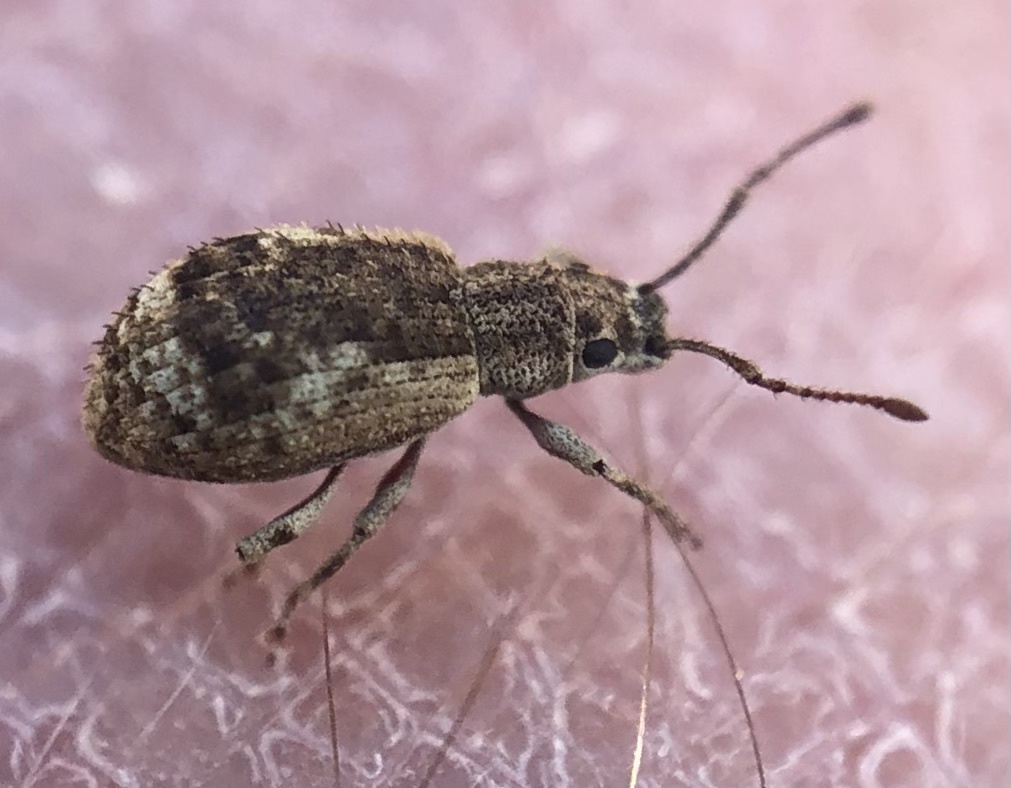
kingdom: Animalia
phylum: Arthropoda
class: Insecta
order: Coleoptera
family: Curculionidae
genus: Pseudoedophrys
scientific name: Pseudoedophrys hilleri
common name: Weevil
